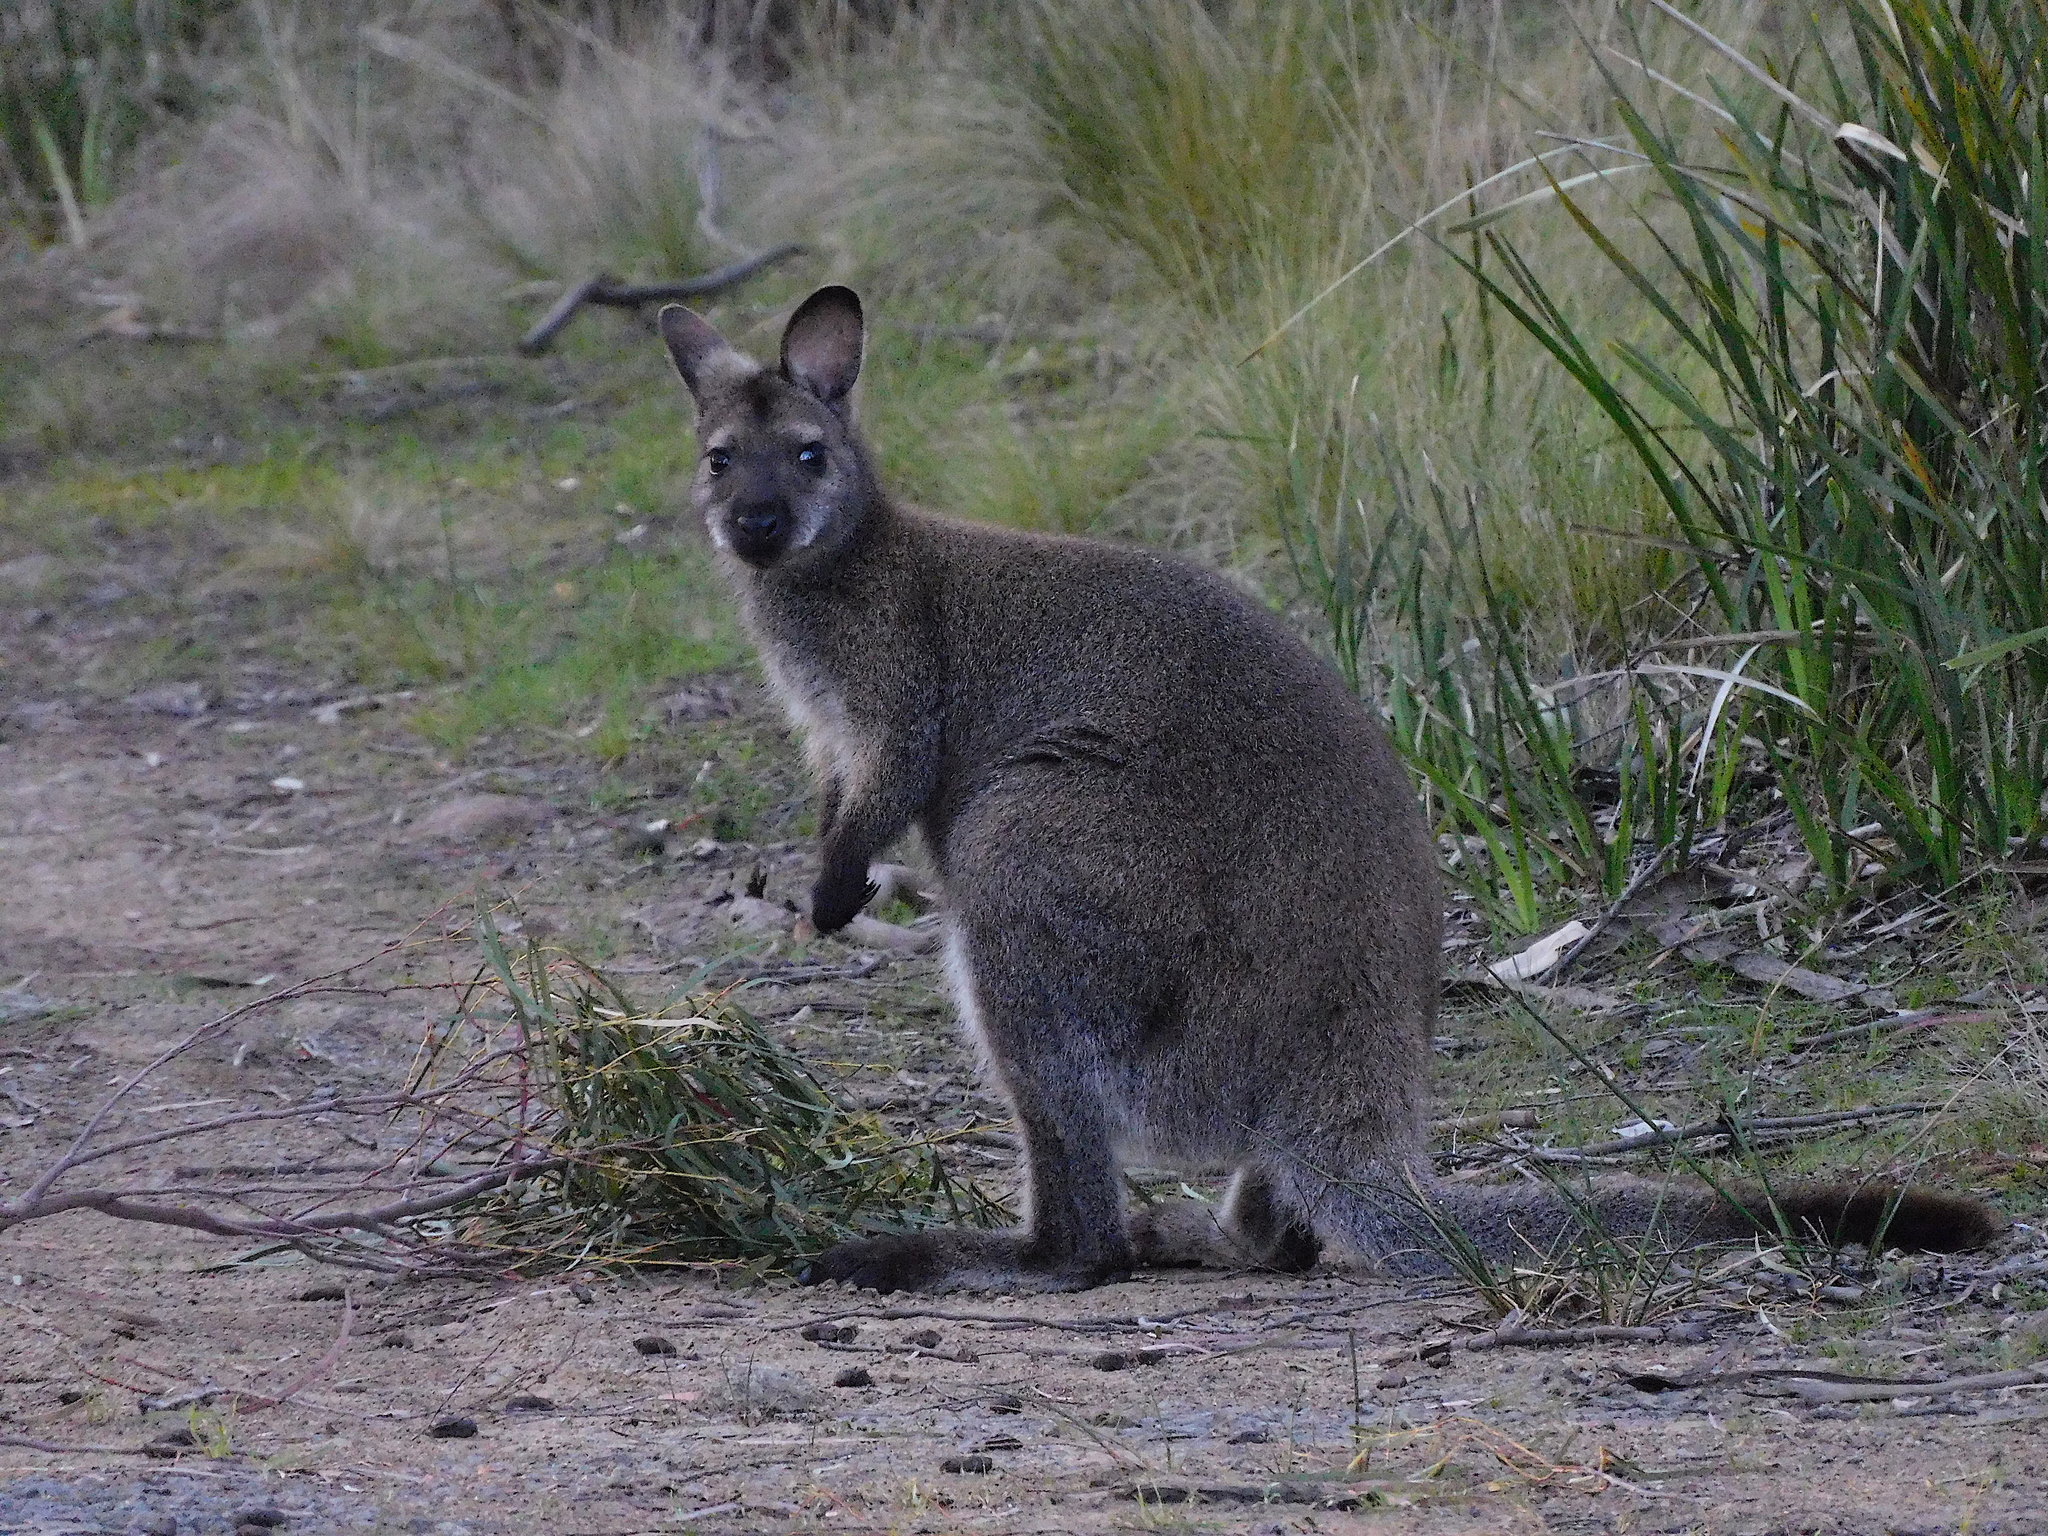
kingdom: Animalia
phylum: Chordata
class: Mammalia
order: Diprotodontia
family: Macropodidae
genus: Notamacropus
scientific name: Notamacropus rufogriseus
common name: Red-necked wallaby
